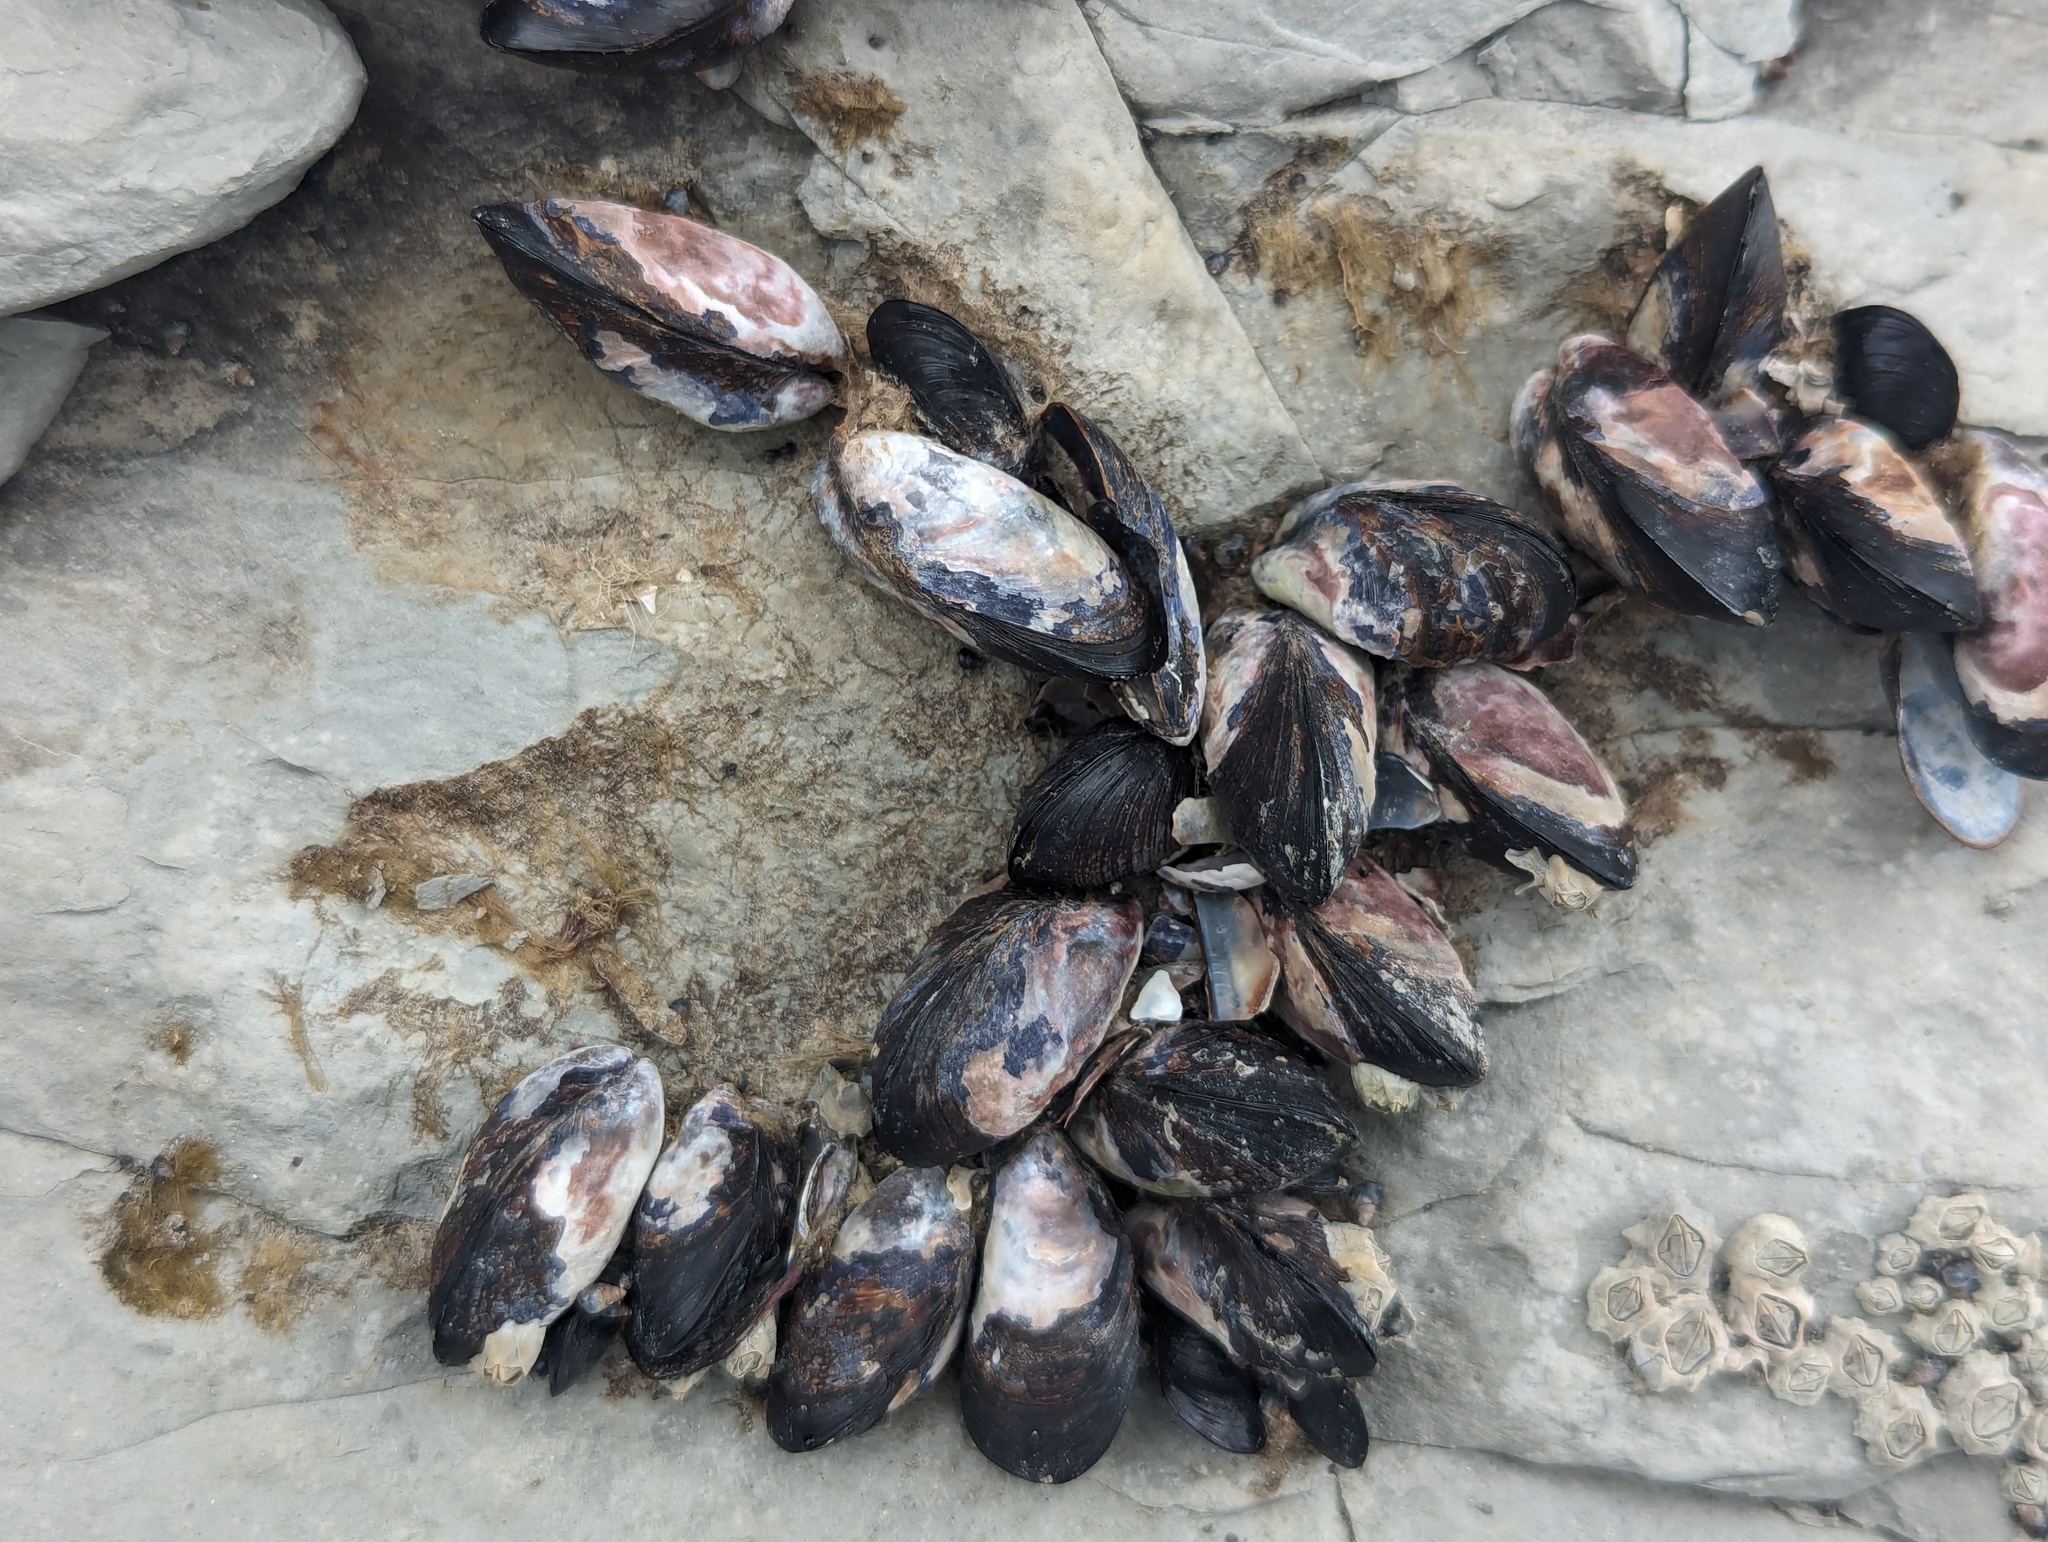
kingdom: Animalia
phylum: Mollusca
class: Bivalvia
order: Mytilida
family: Mytilidae
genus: Xenostrobus
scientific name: Xenostrobus neozelanicus
